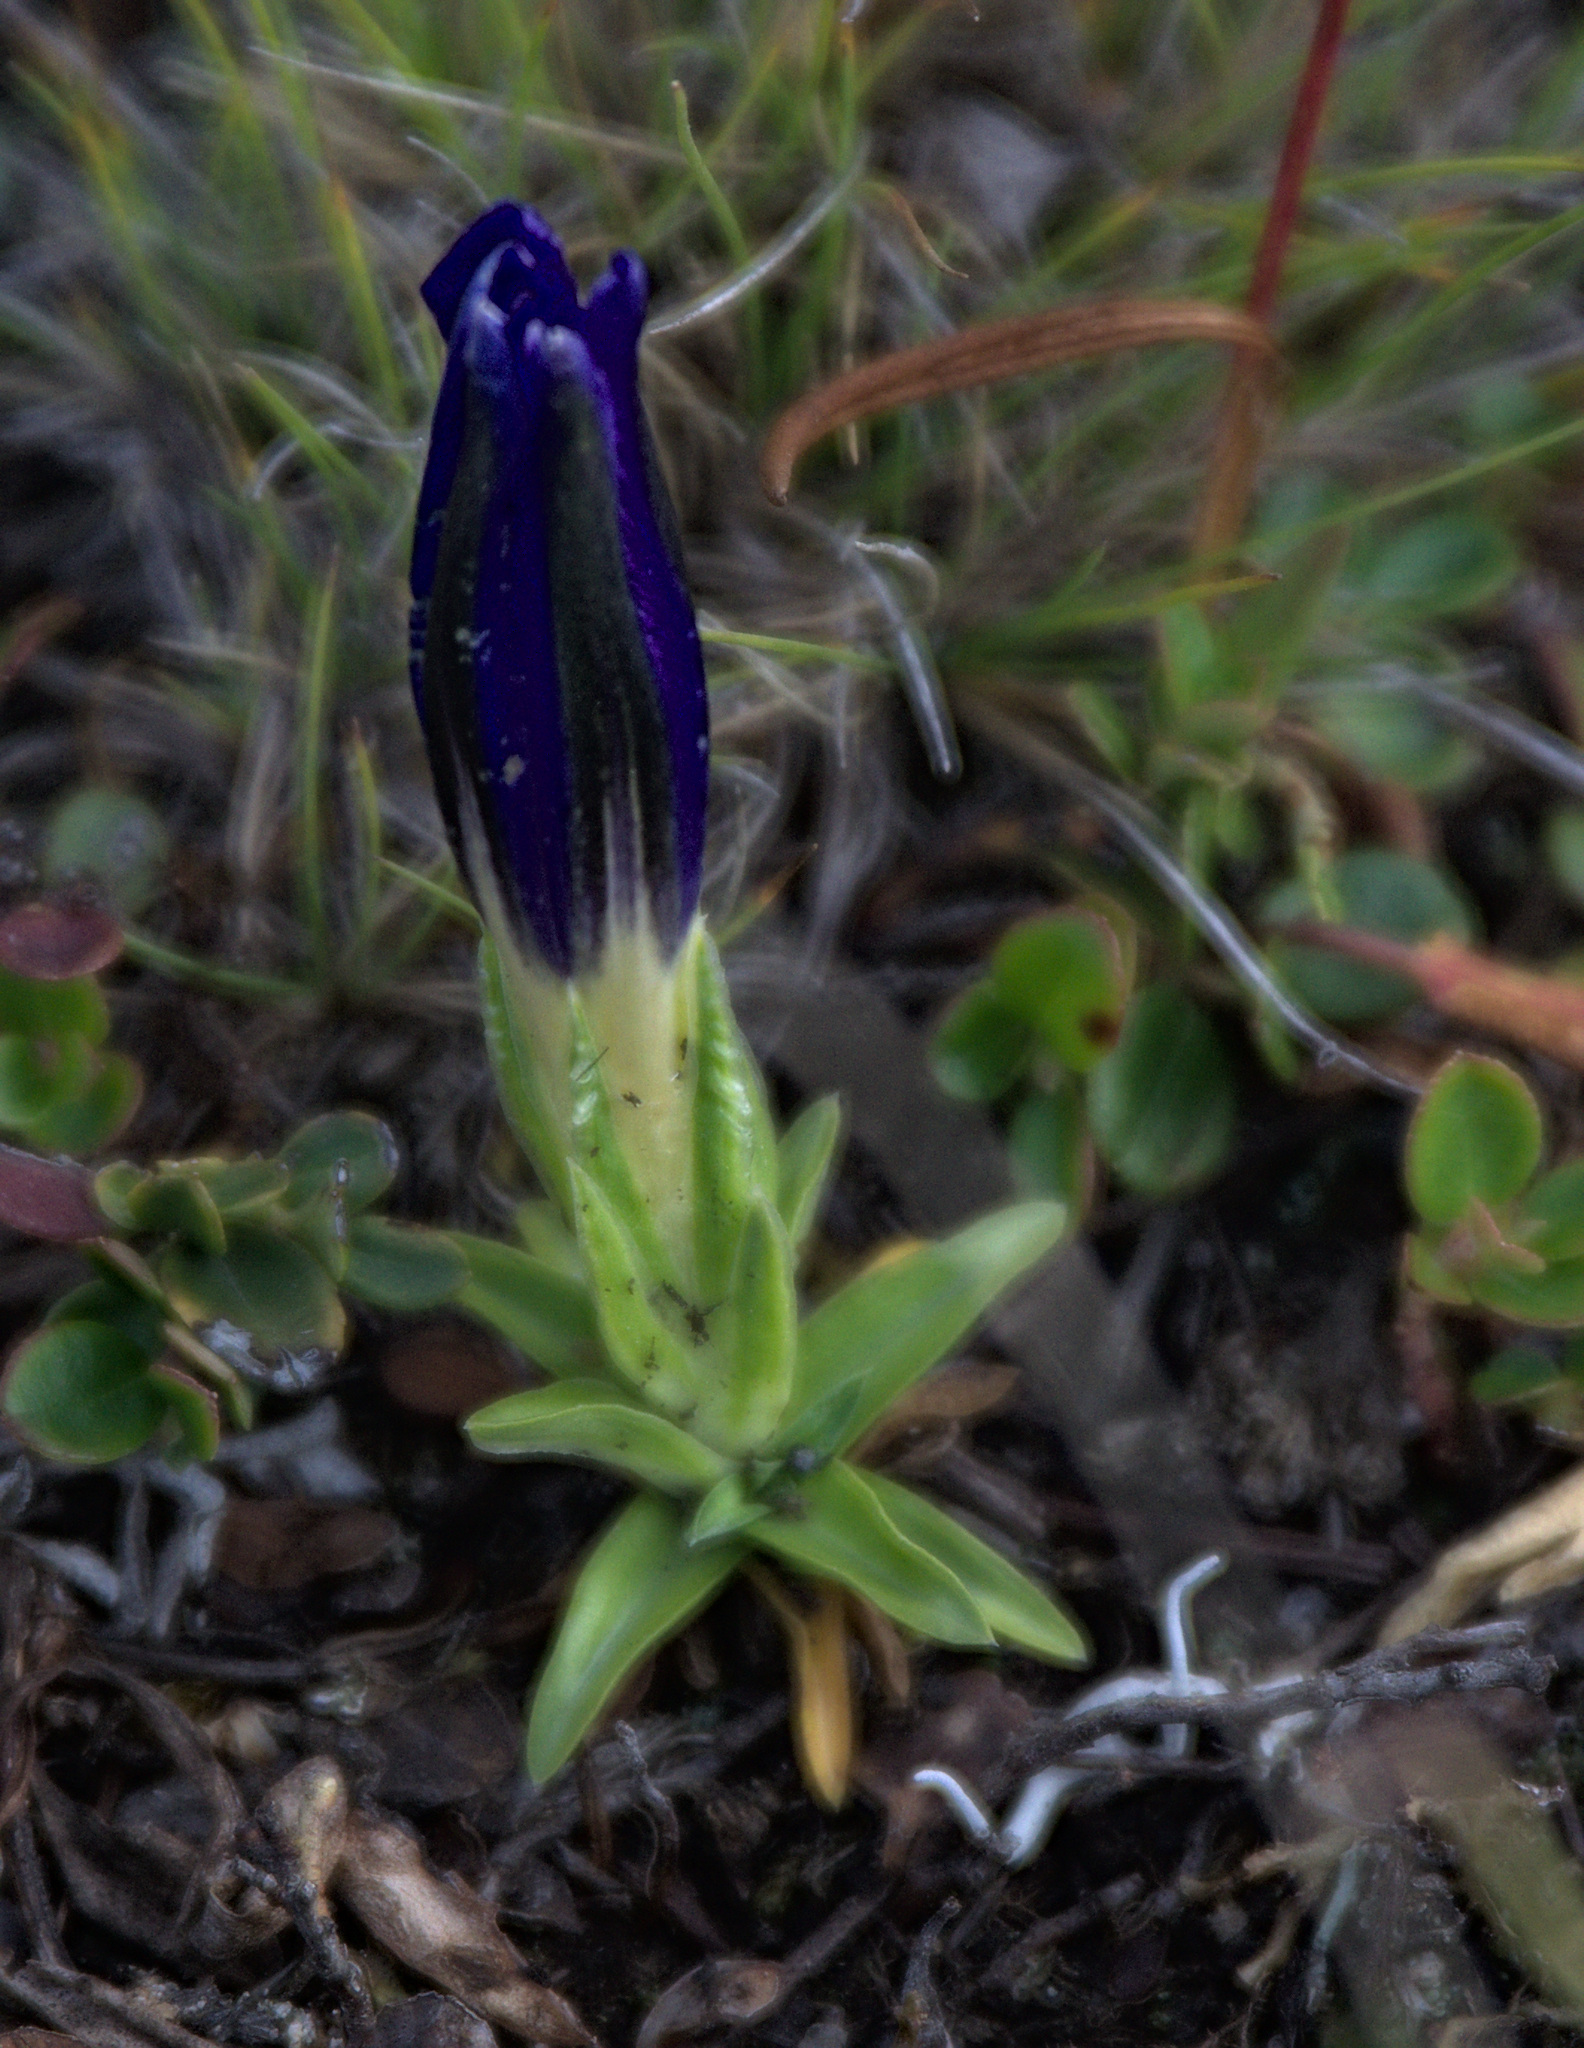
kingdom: Plantae
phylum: Tracheophyta
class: Magnoliopsida
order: Gentianales
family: Gentianaceae
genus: Gentiana
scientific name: Gentiana grandiflora
